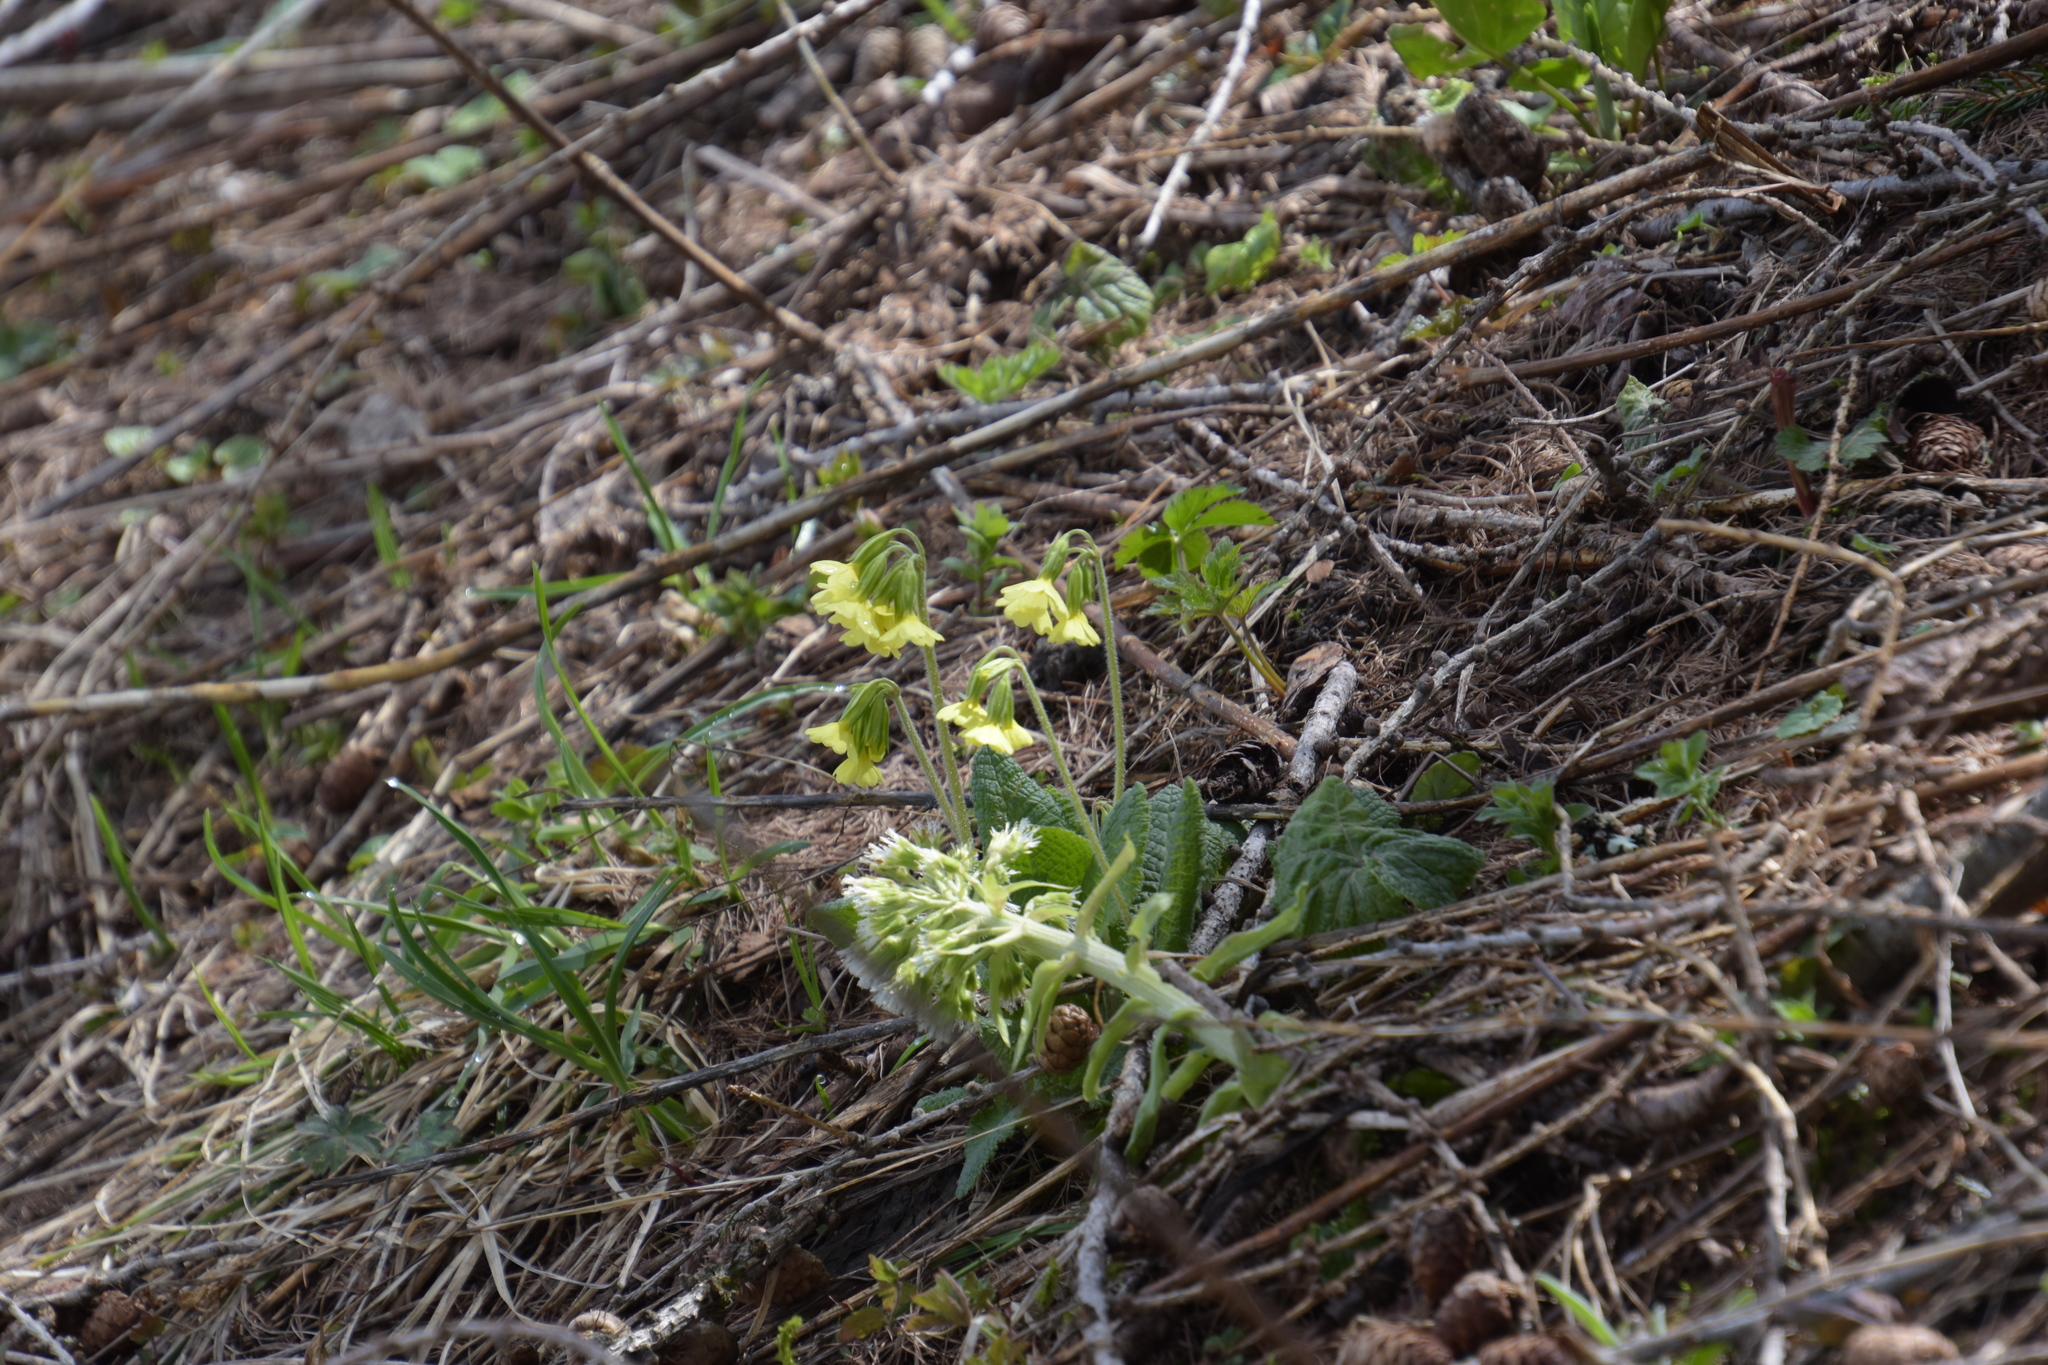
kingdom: Plantae
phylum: Tracheophyta
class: Magnoliopsida
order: Ericales
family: Primulaceae
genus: Primula
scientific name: Primula elatior
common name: Oxlip
